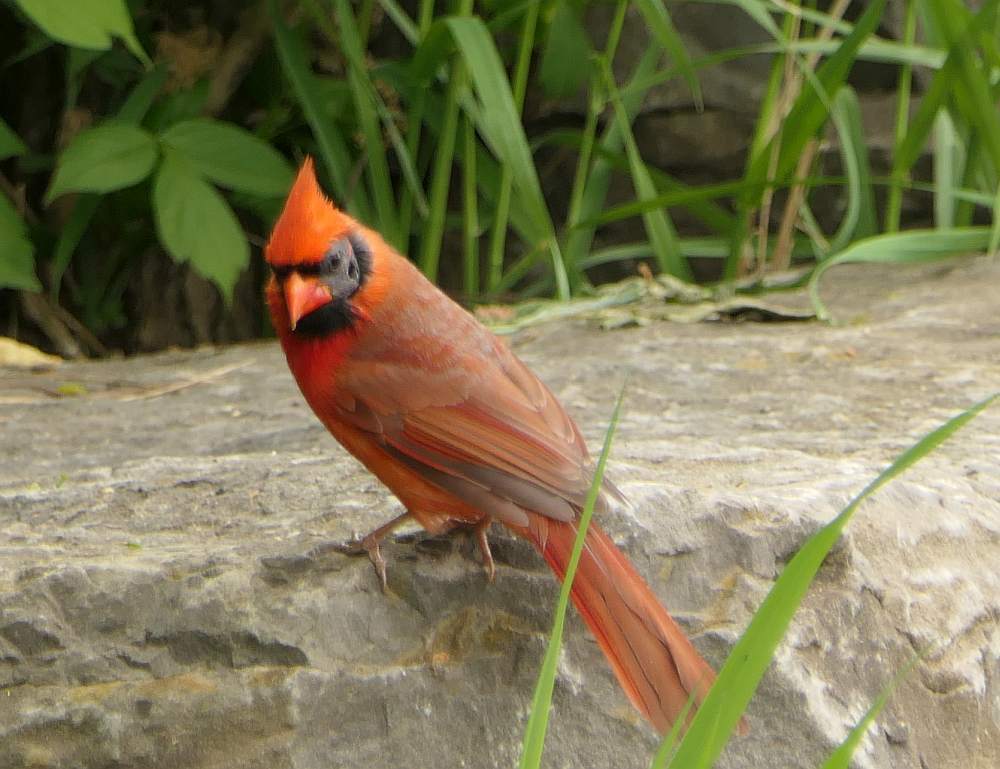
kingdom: Animalia
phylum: Chordata
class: Aves
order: Passeriformes
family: Cardinalidae
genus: Cardinalis
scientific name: Cardinalis cardinalis
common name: Northern cardinal
